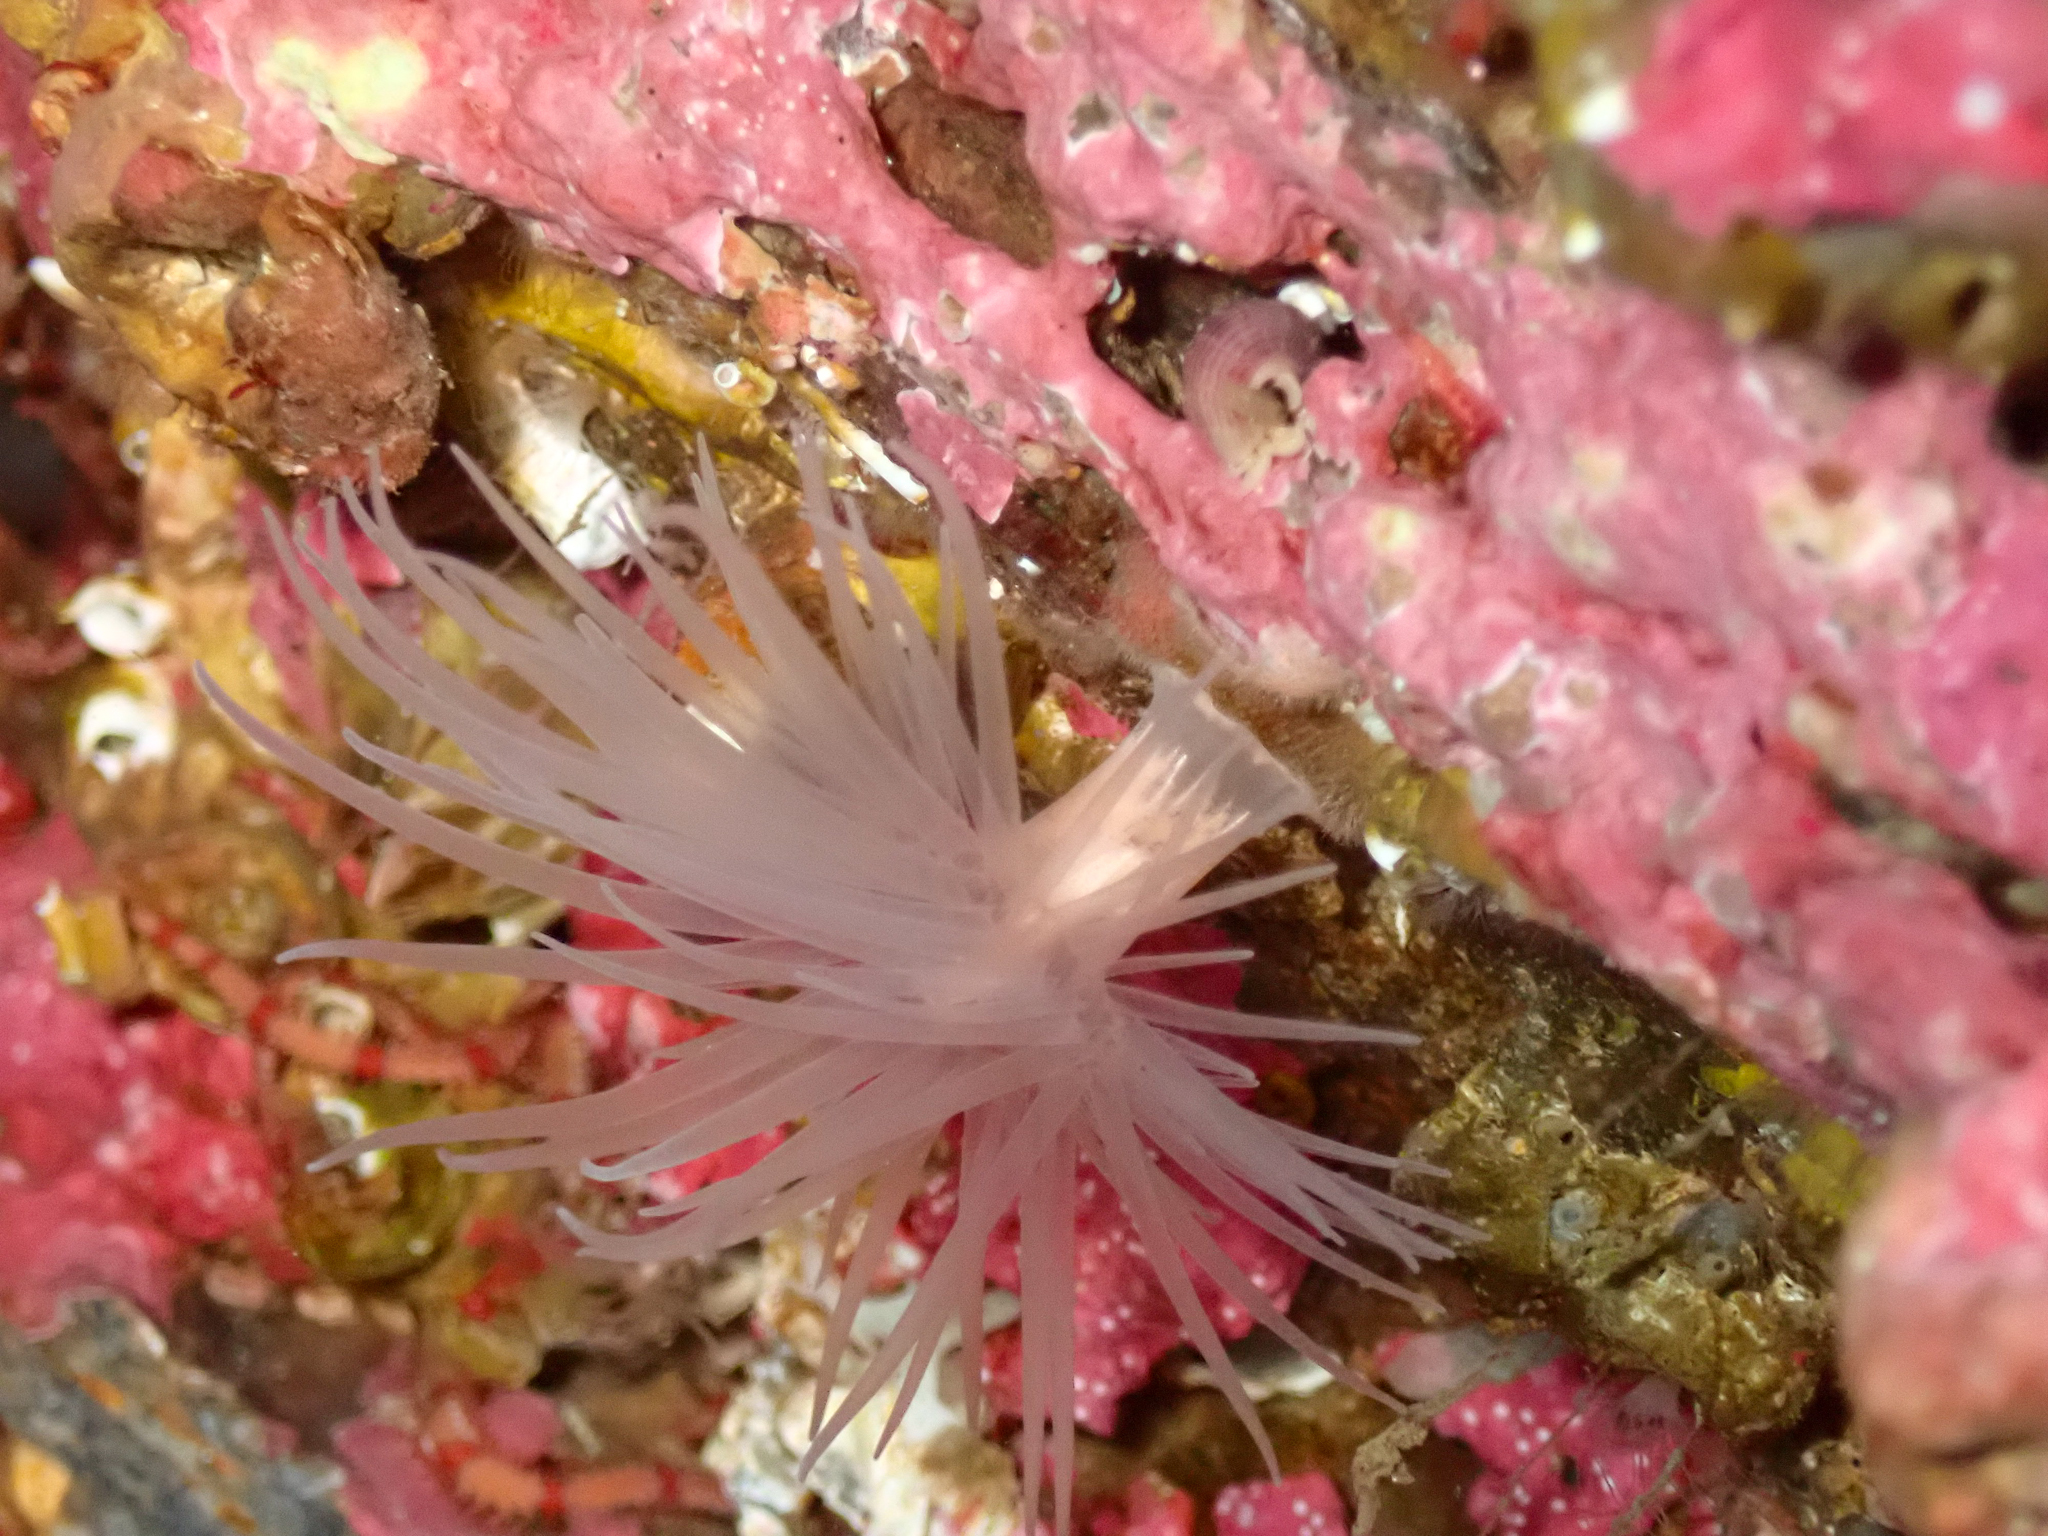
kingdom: Animalia
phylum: Cnidaria
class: Anthozoa
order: Actiniaria
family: Gonactiniidae
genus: Protanthea
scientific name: Protanthea simplex
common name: Sealoch anemone
